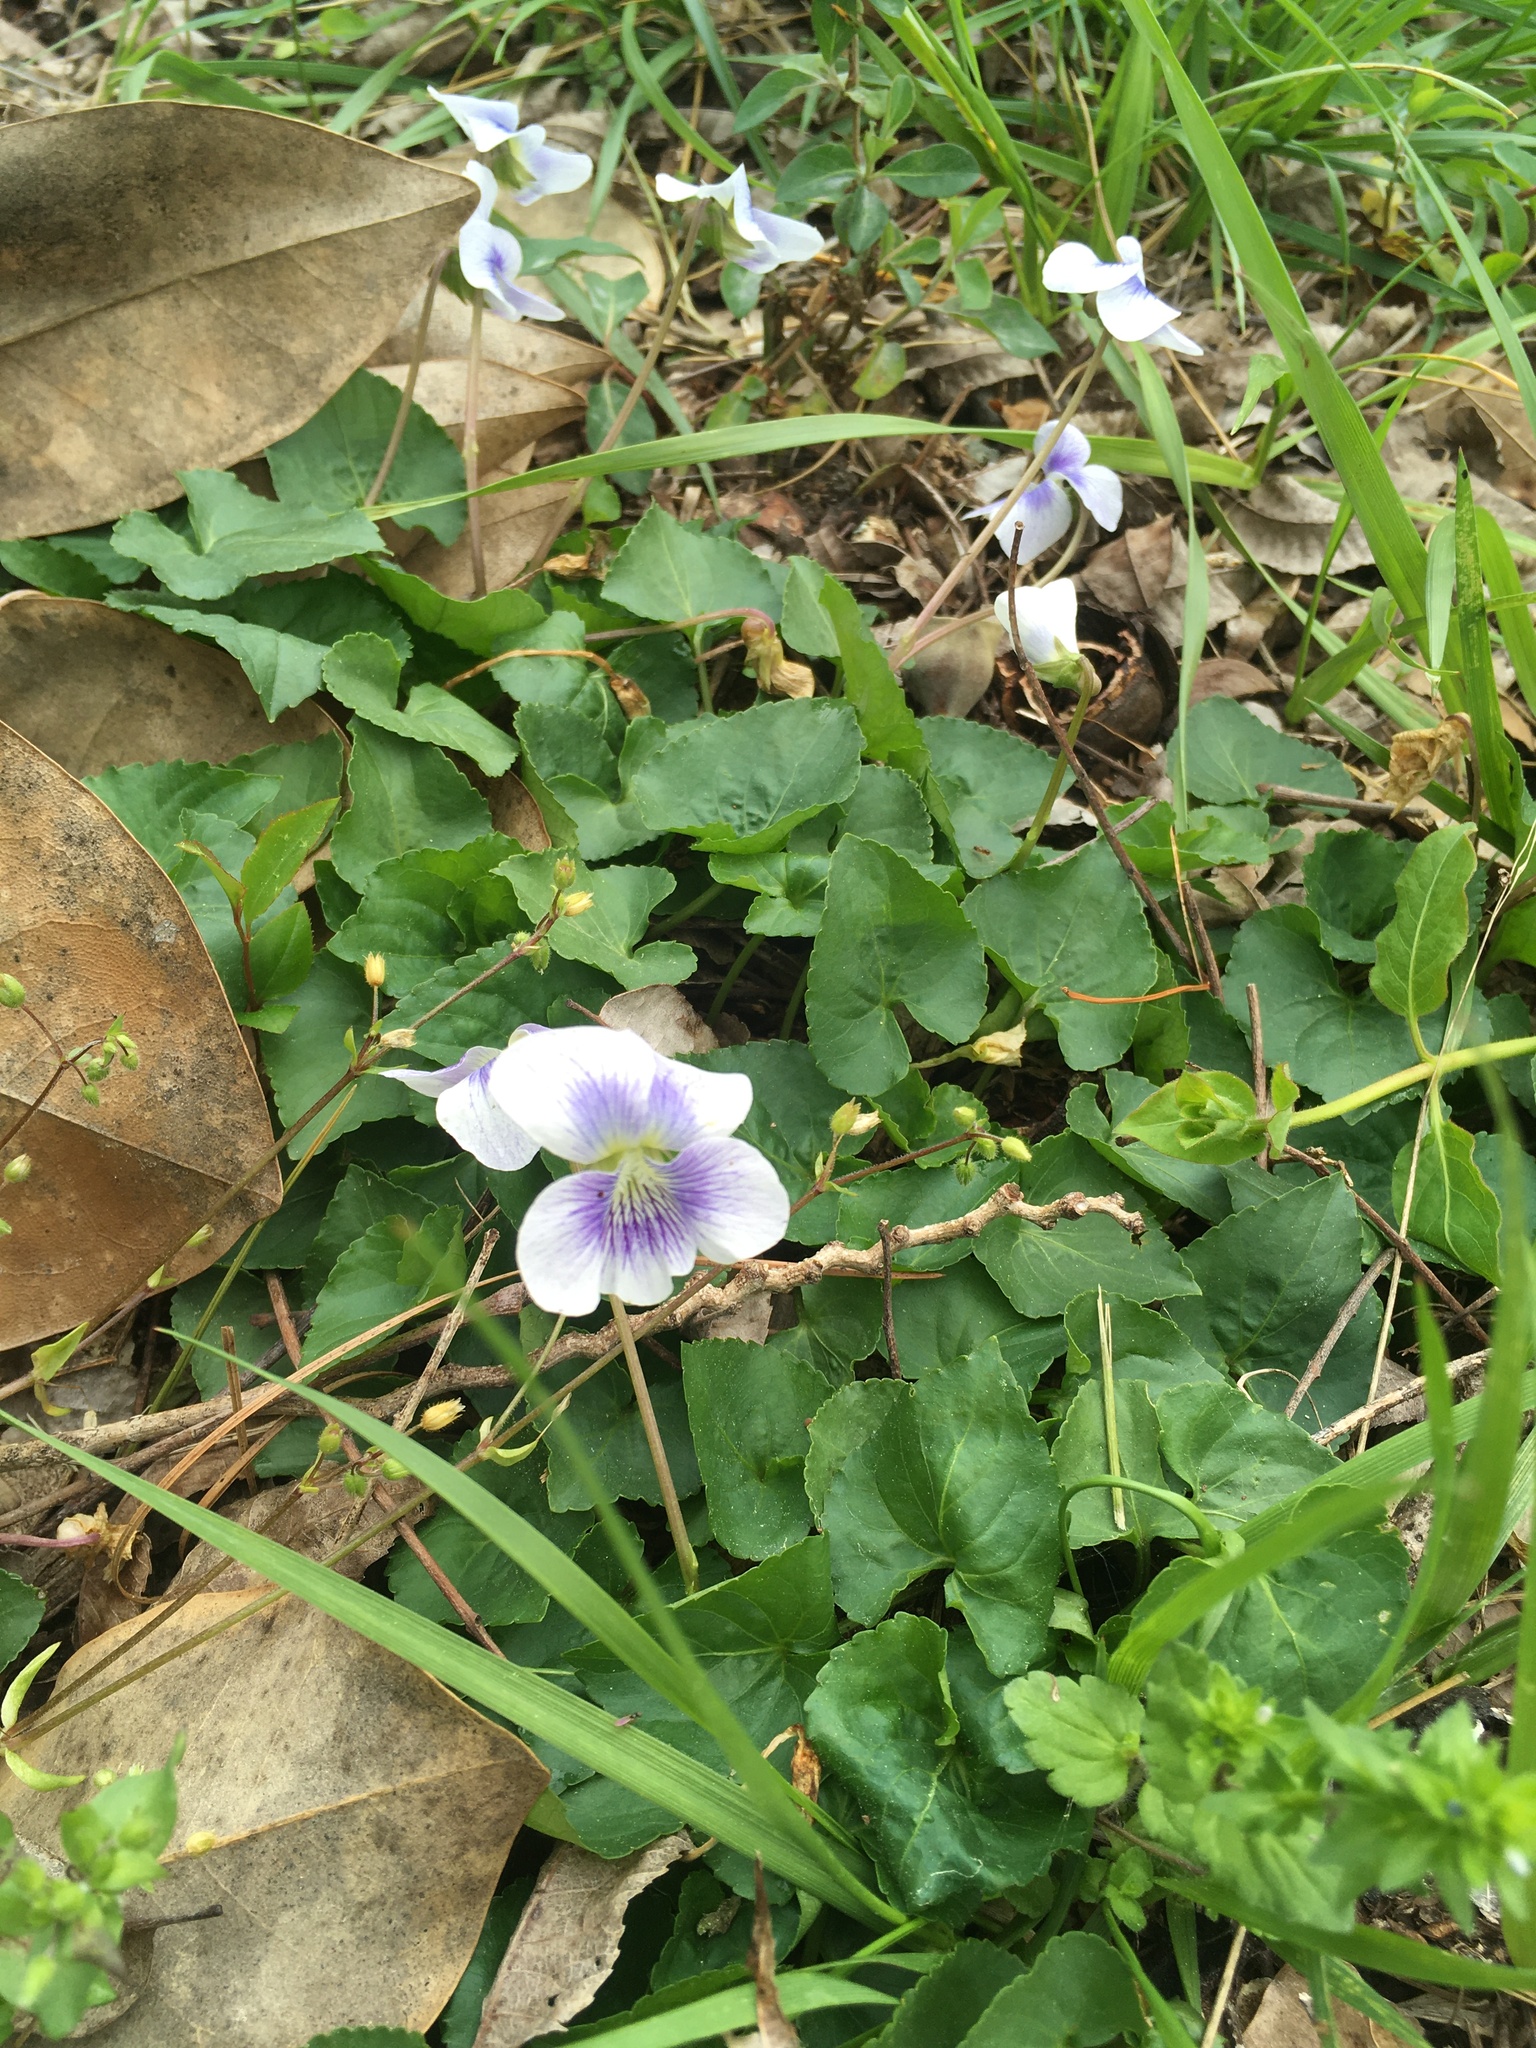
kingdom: Plantae
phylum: Tracheophyta
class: Magnoliopsida
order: Malpighiales
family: Violaceae
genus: Viola
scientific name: Viola sororia
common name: Dooryard violet
